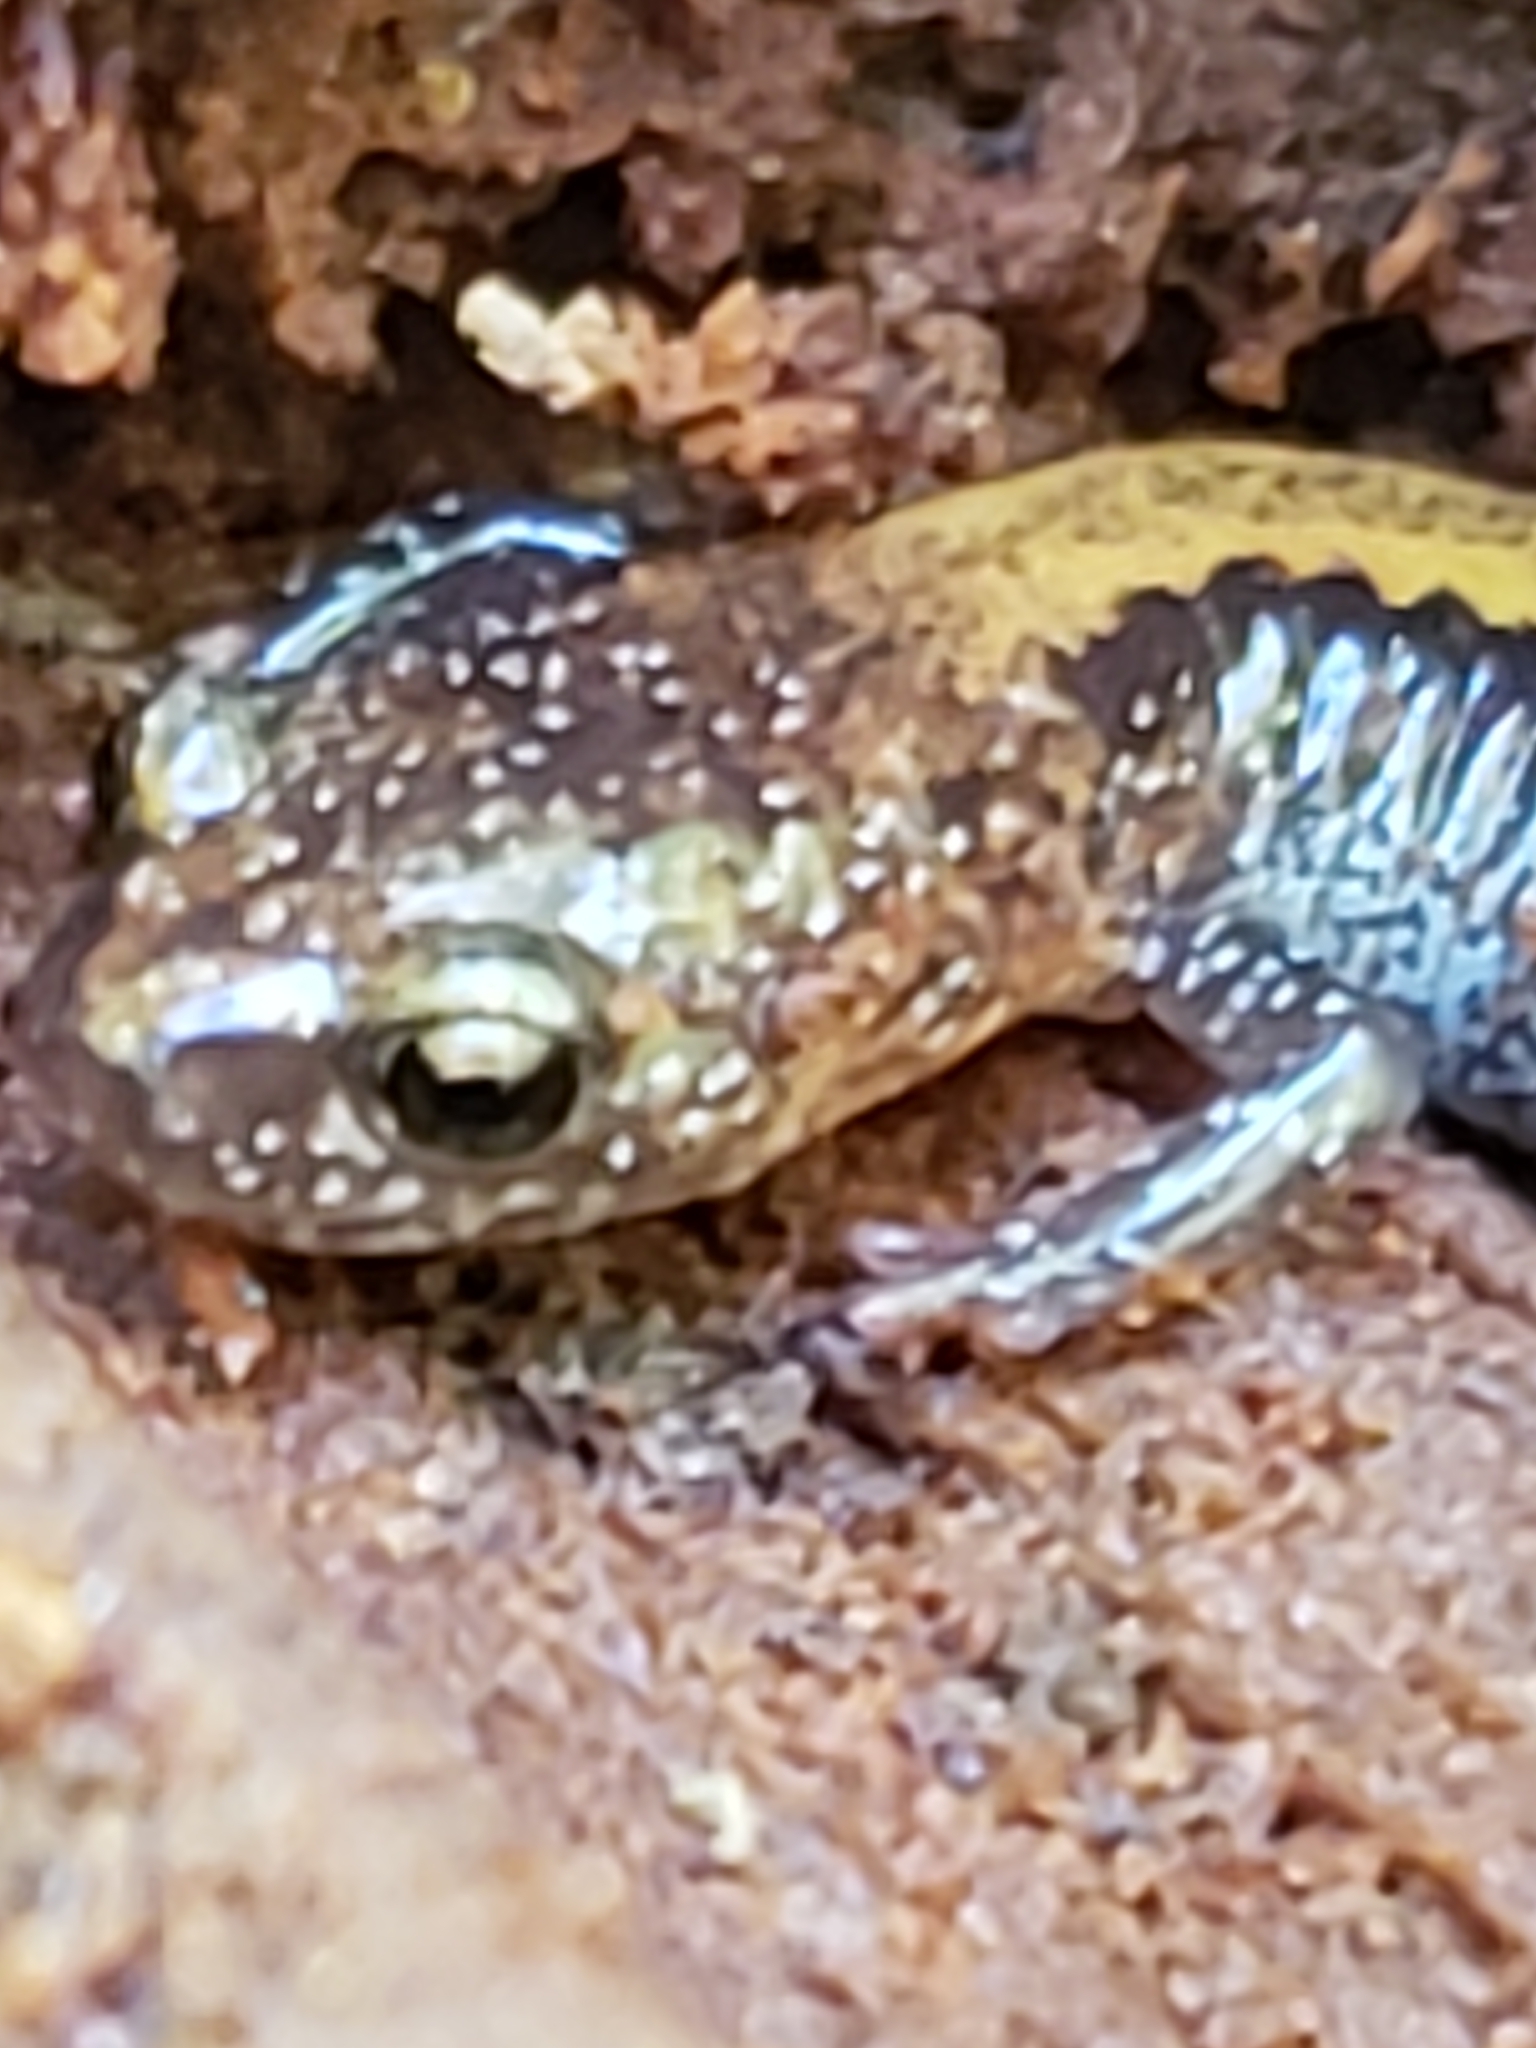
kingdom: Animalia
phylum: Chordata
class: Amphibia
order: Caudata
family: Plethodontidae
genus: Plethodon
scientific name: Plethodon cinereus
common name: Redback salamander
